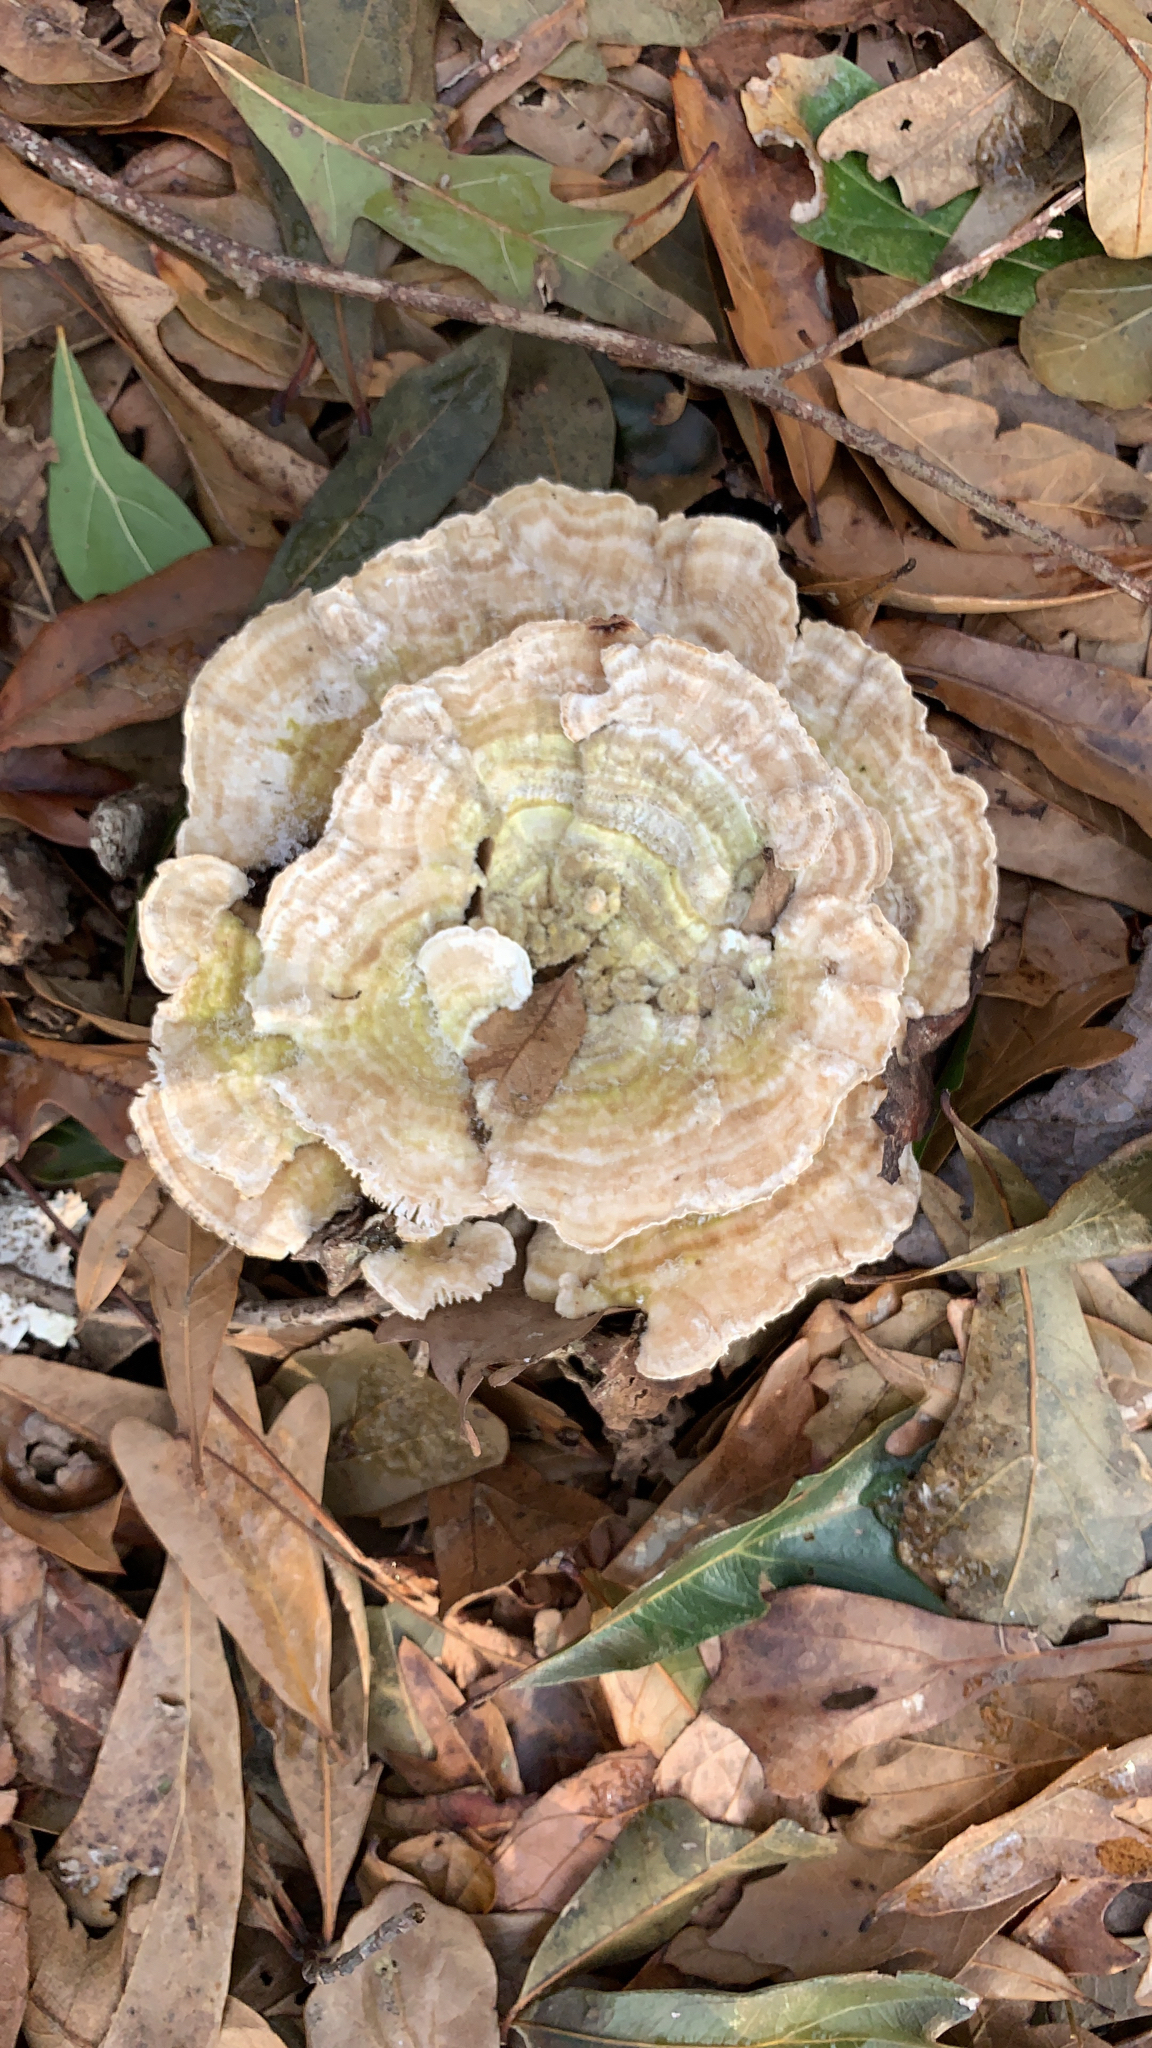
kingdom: Fungi
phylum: Basidiomycota
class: Agaricomycetes
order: Polyporales
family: Polyporaceae
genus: Lenzites
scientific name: Lenzites betulinus
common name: Birch mazegill
